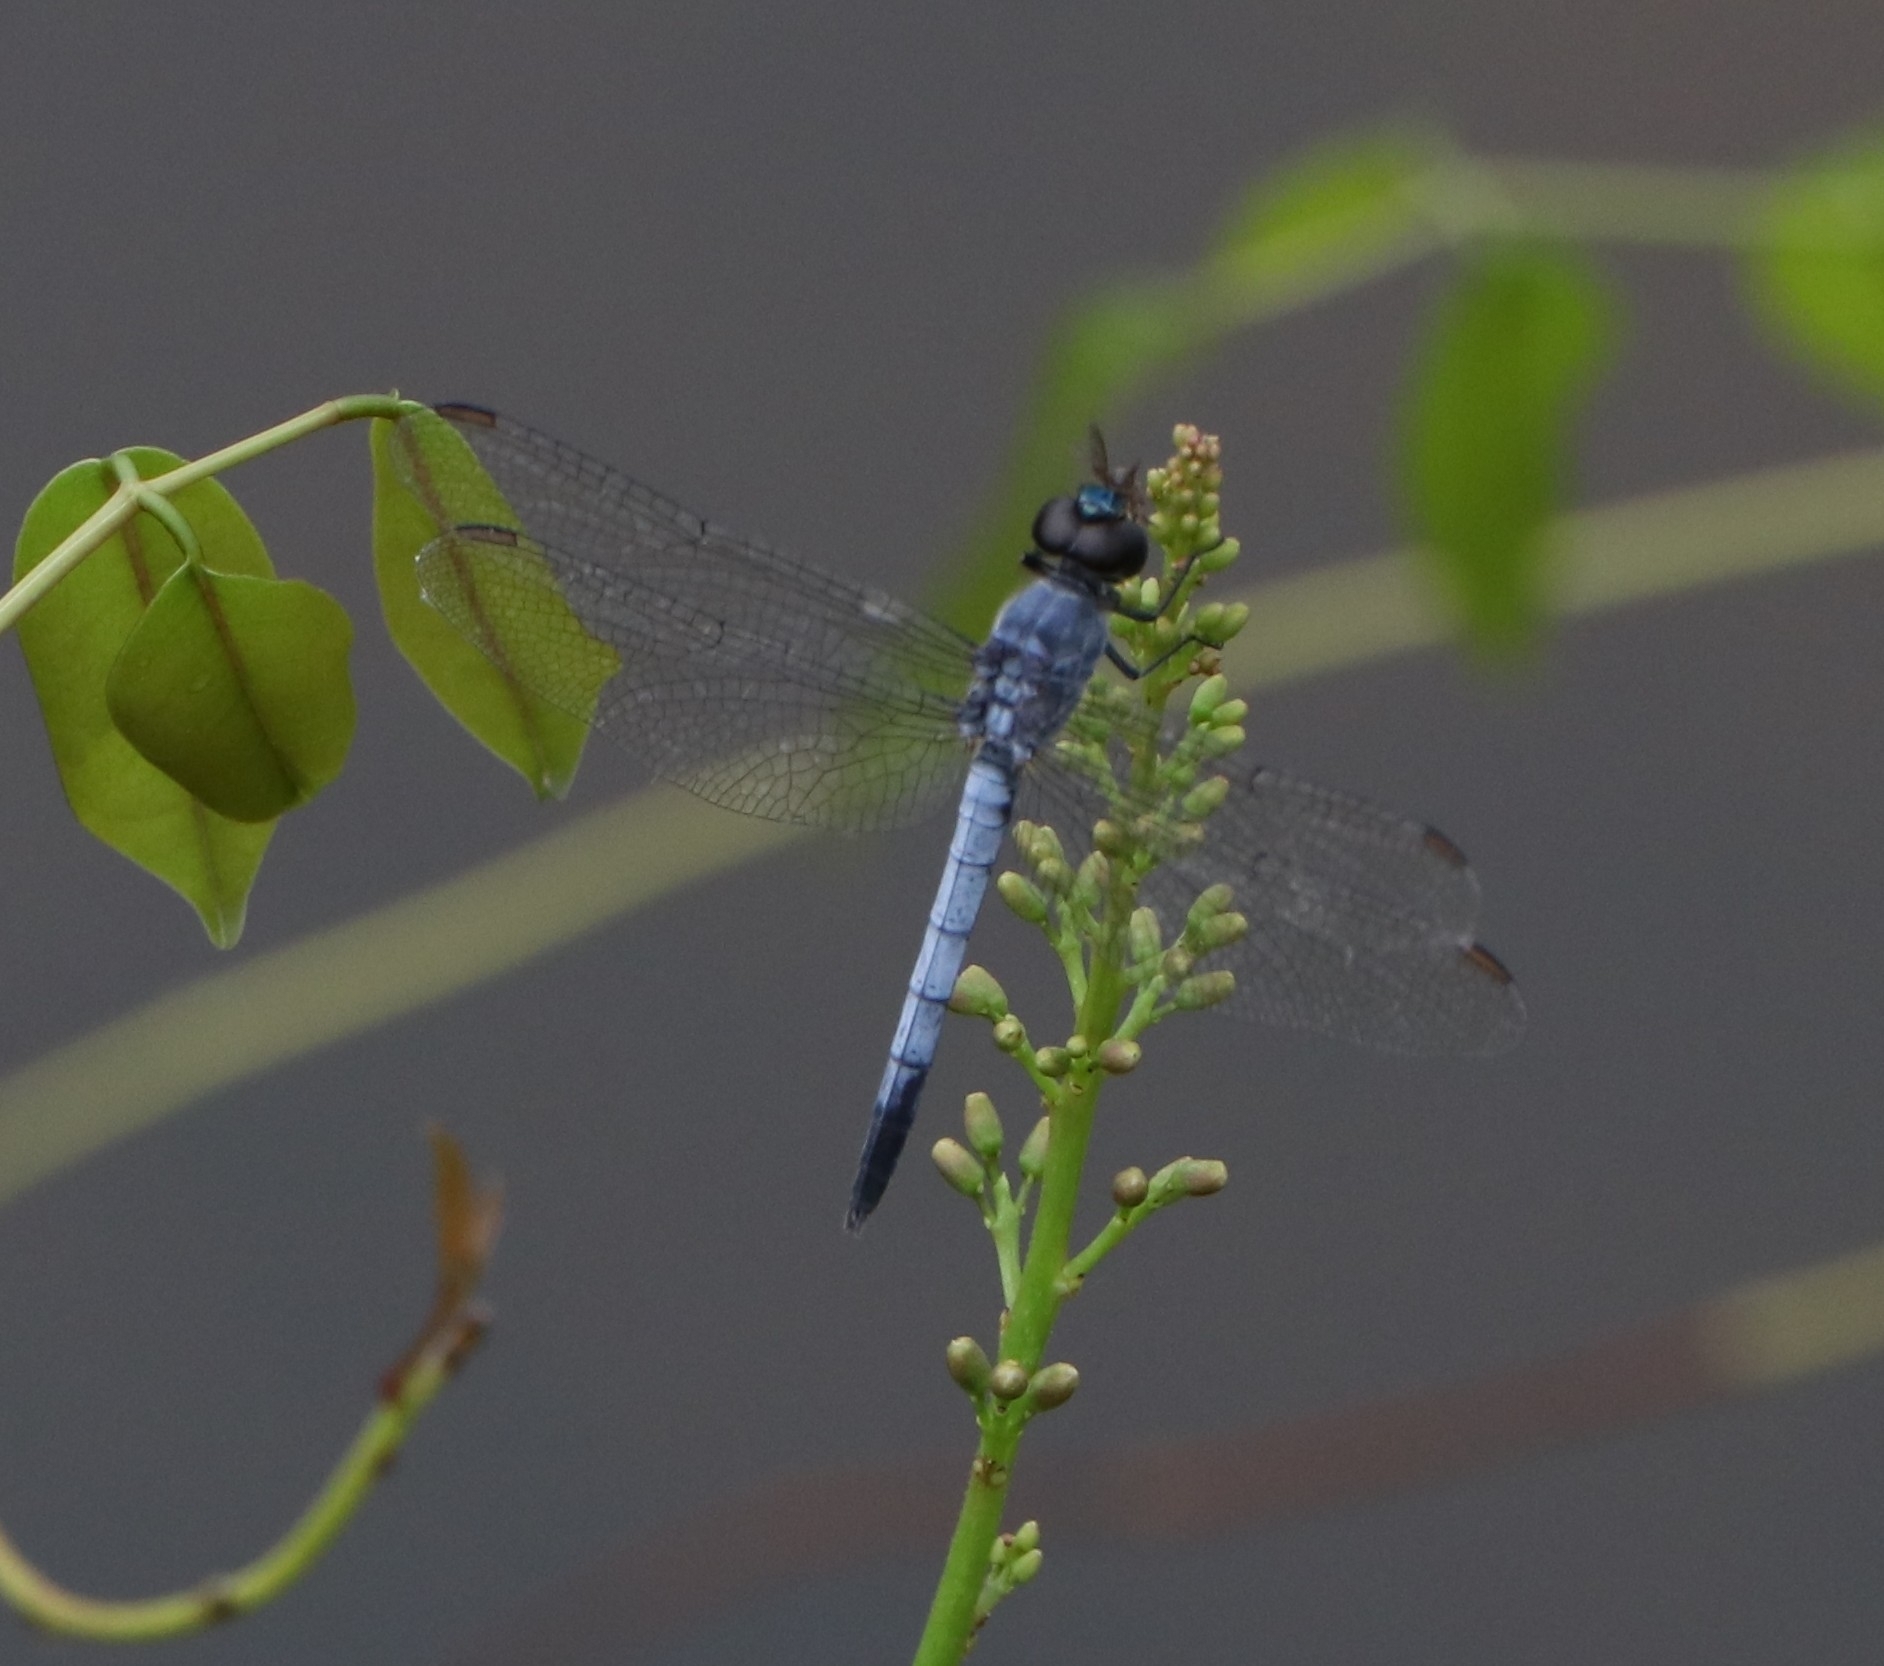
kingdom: Animalia
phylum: Arthropoda
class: Insecta
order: Odonata
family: Libellulidae
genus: Brachydiplax
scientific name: Brachydiplax sobrina
